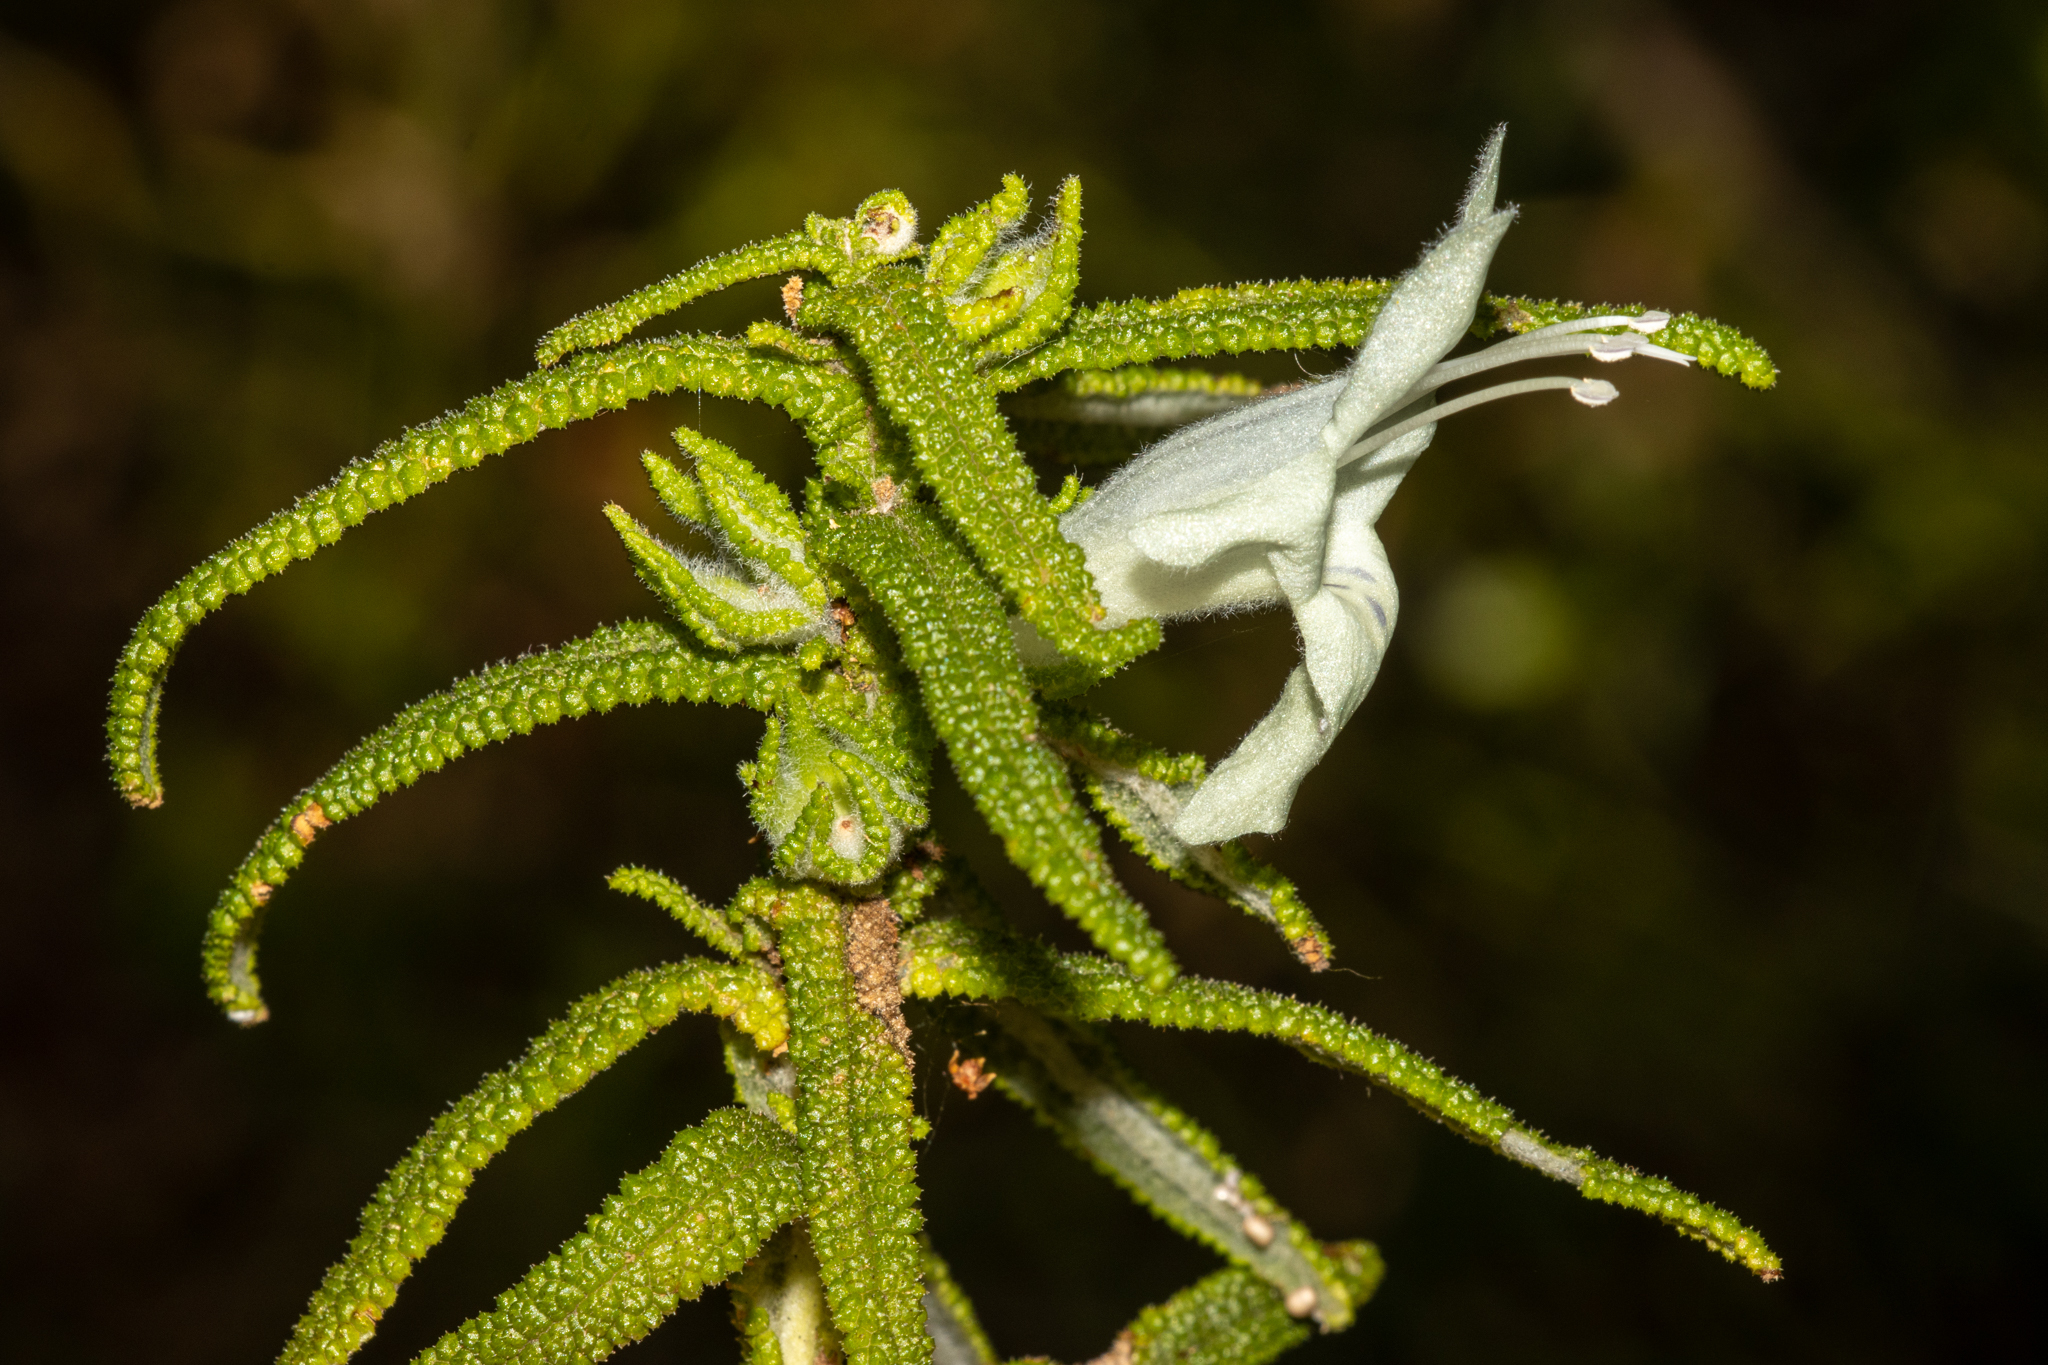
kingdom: Plantae
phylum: Tracheophyta
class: Magnoliopsida
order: Lamiales
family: Lamiaceae
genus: Chloanthes
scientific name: Chloanthes stoechadis
